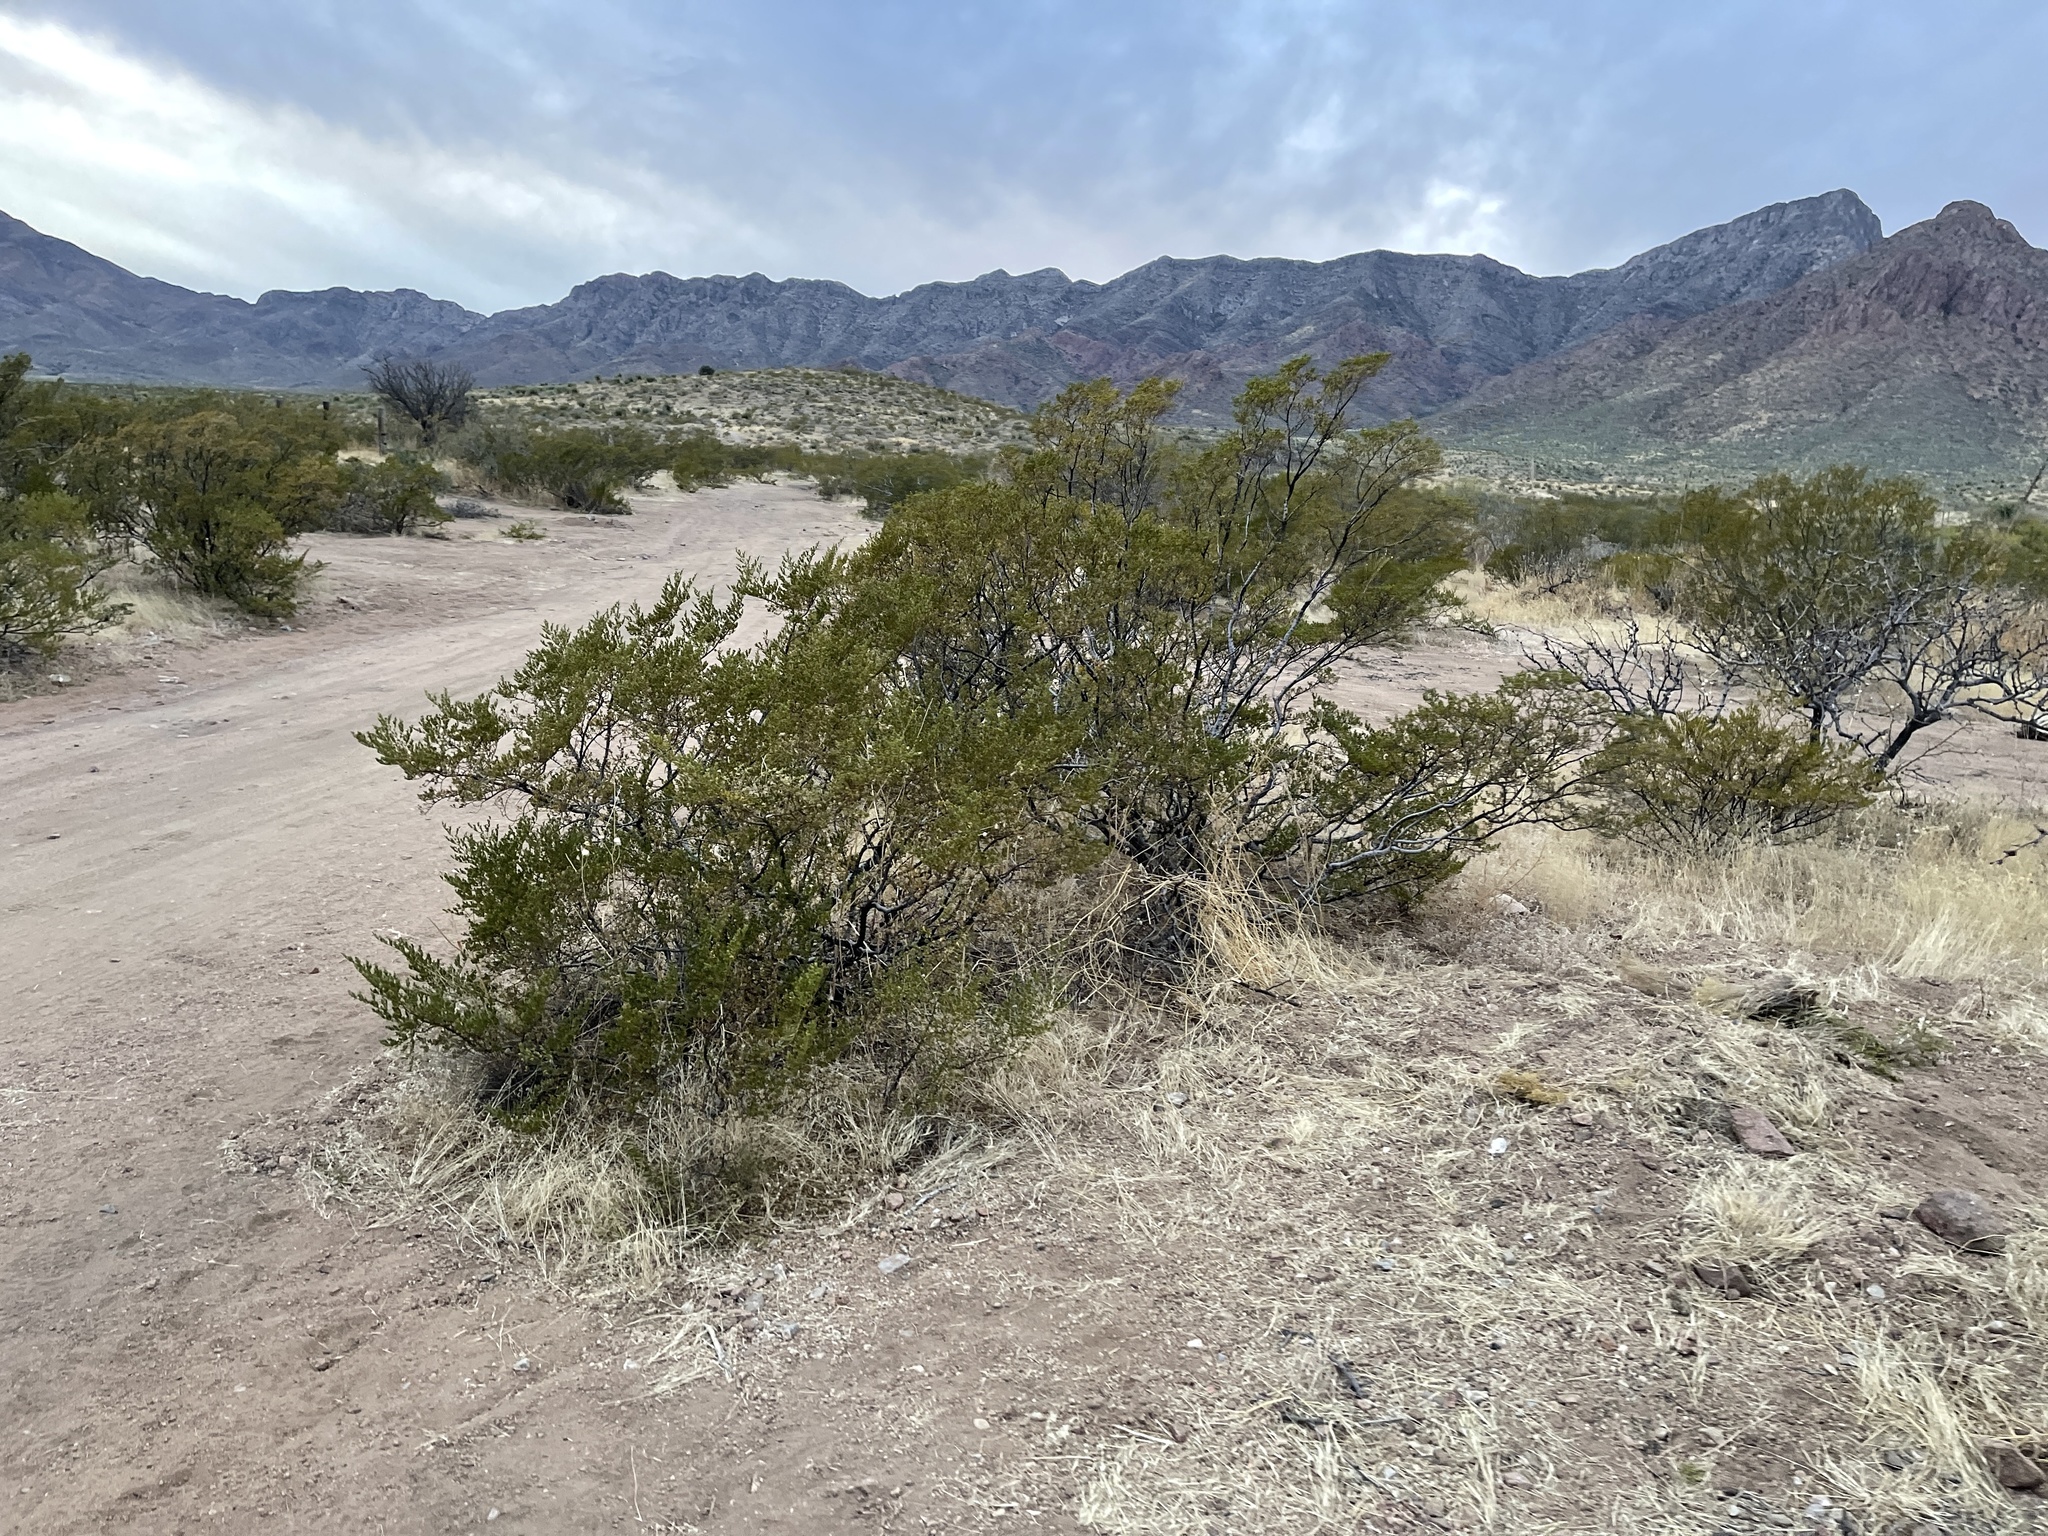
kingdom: Plantae
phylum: Tracheophyta
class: Magnoliopsida
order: Zygophyllales
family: Zygophyllaceae
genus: Larrea
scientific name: Larrea tridentata
